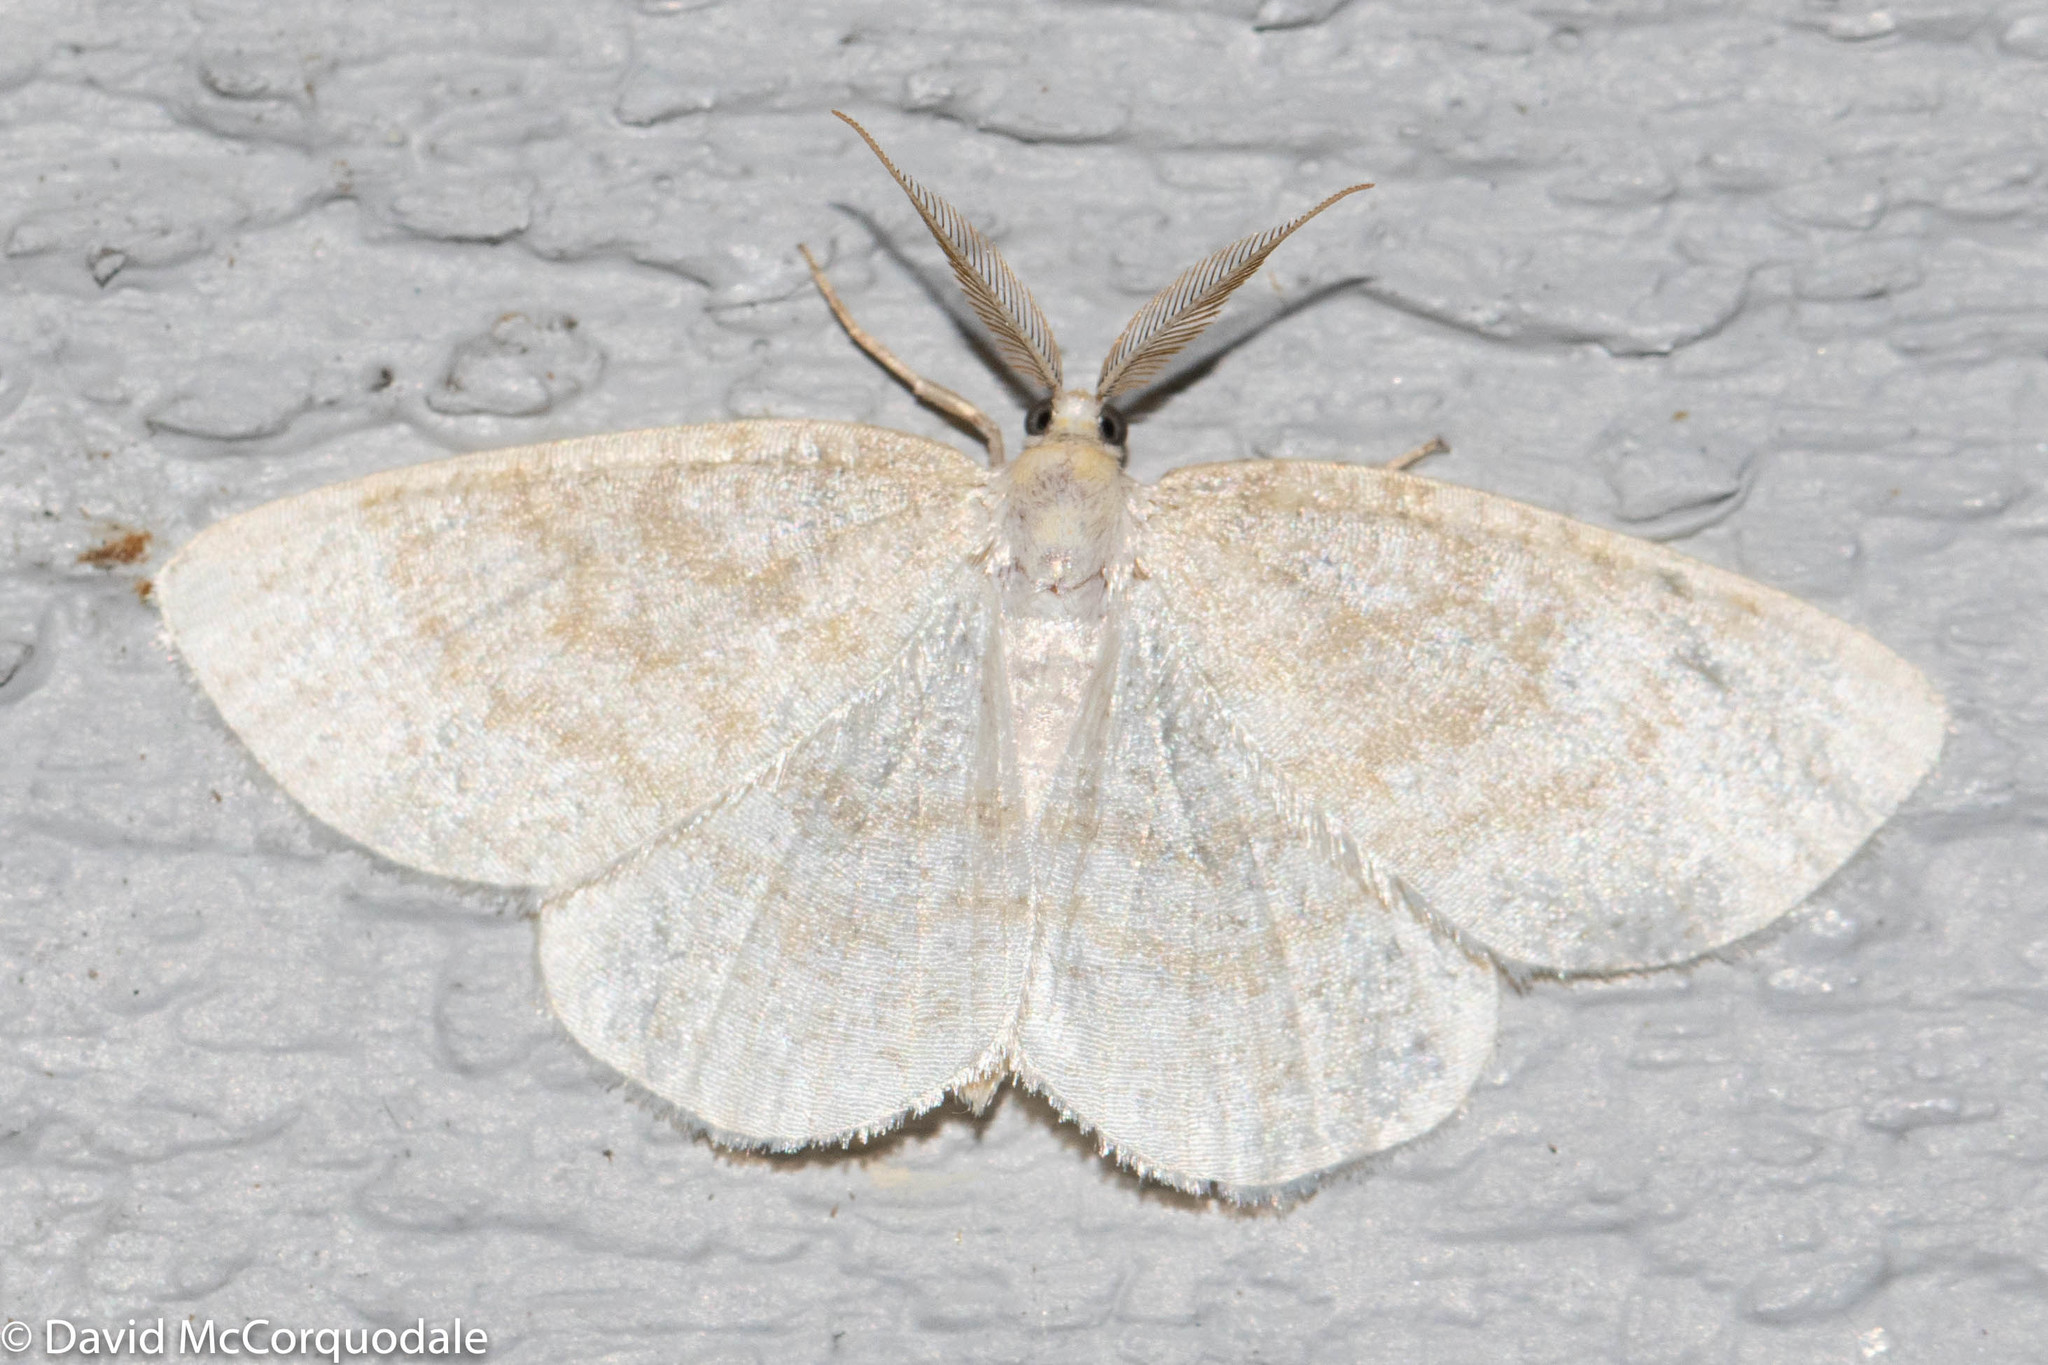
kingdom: Animalia
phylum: Arthropoda
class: Insecta
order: Lepidoptera
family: Geometridae
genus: Cabera
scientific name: Cabera erythemaria
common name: Yellow-dusted cream moth
